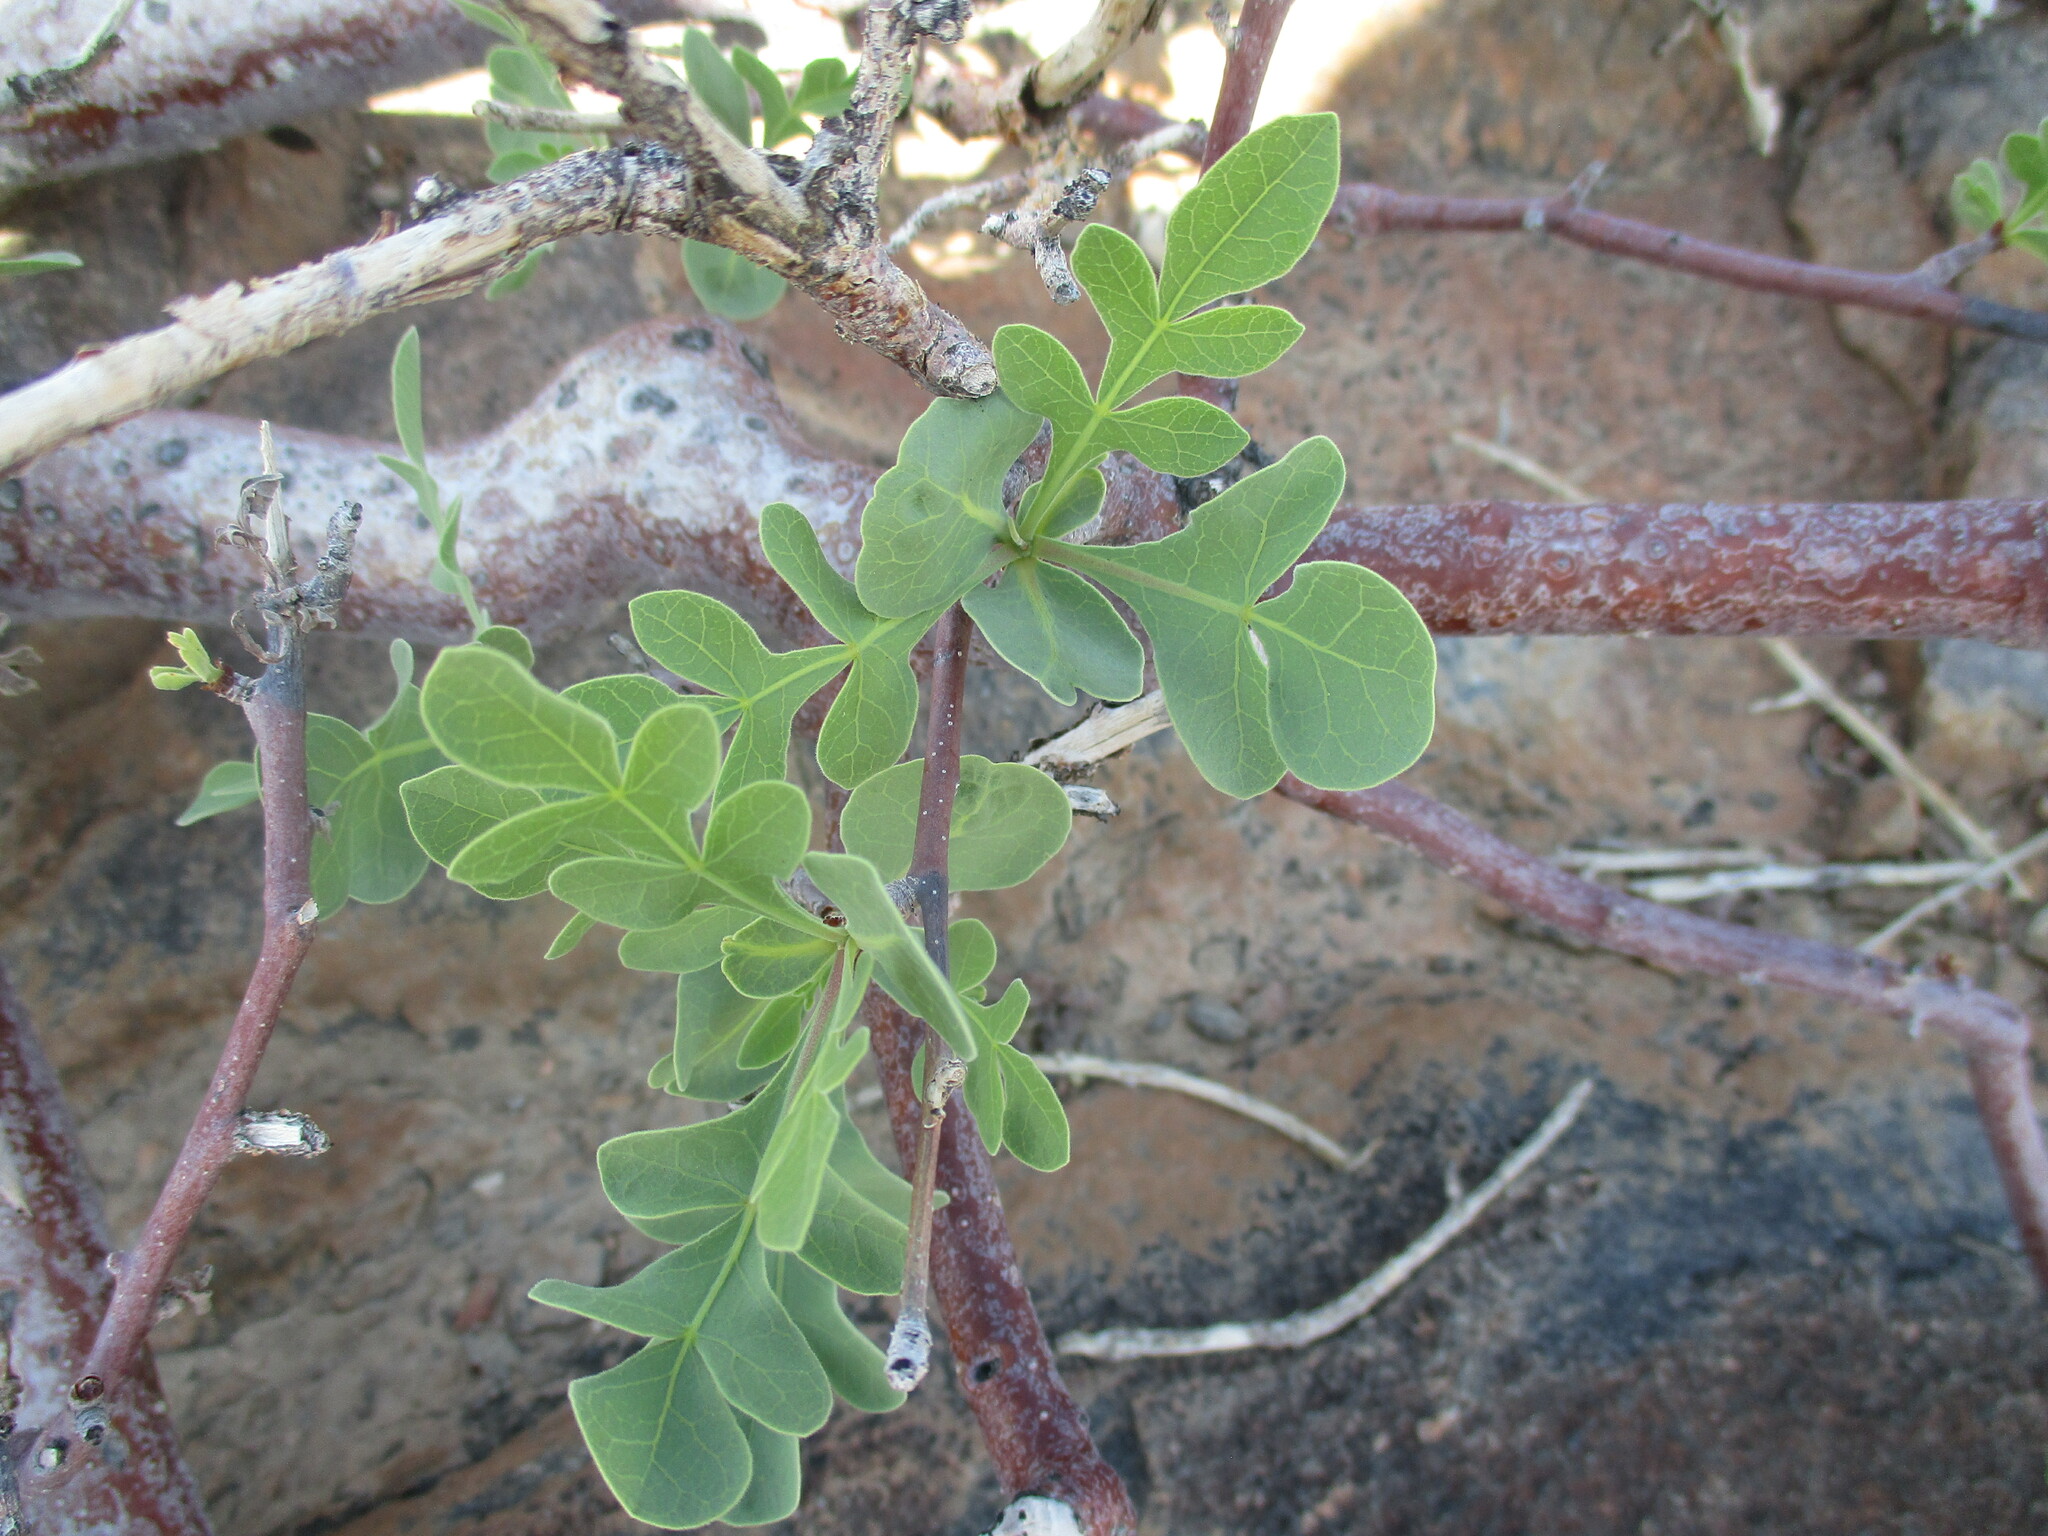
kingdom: Plantae
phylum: Tracheophyta
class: Magnoliopsida
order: Sapindales
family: Burseraceae
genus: Commiphora
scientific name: Commiphora wildii
